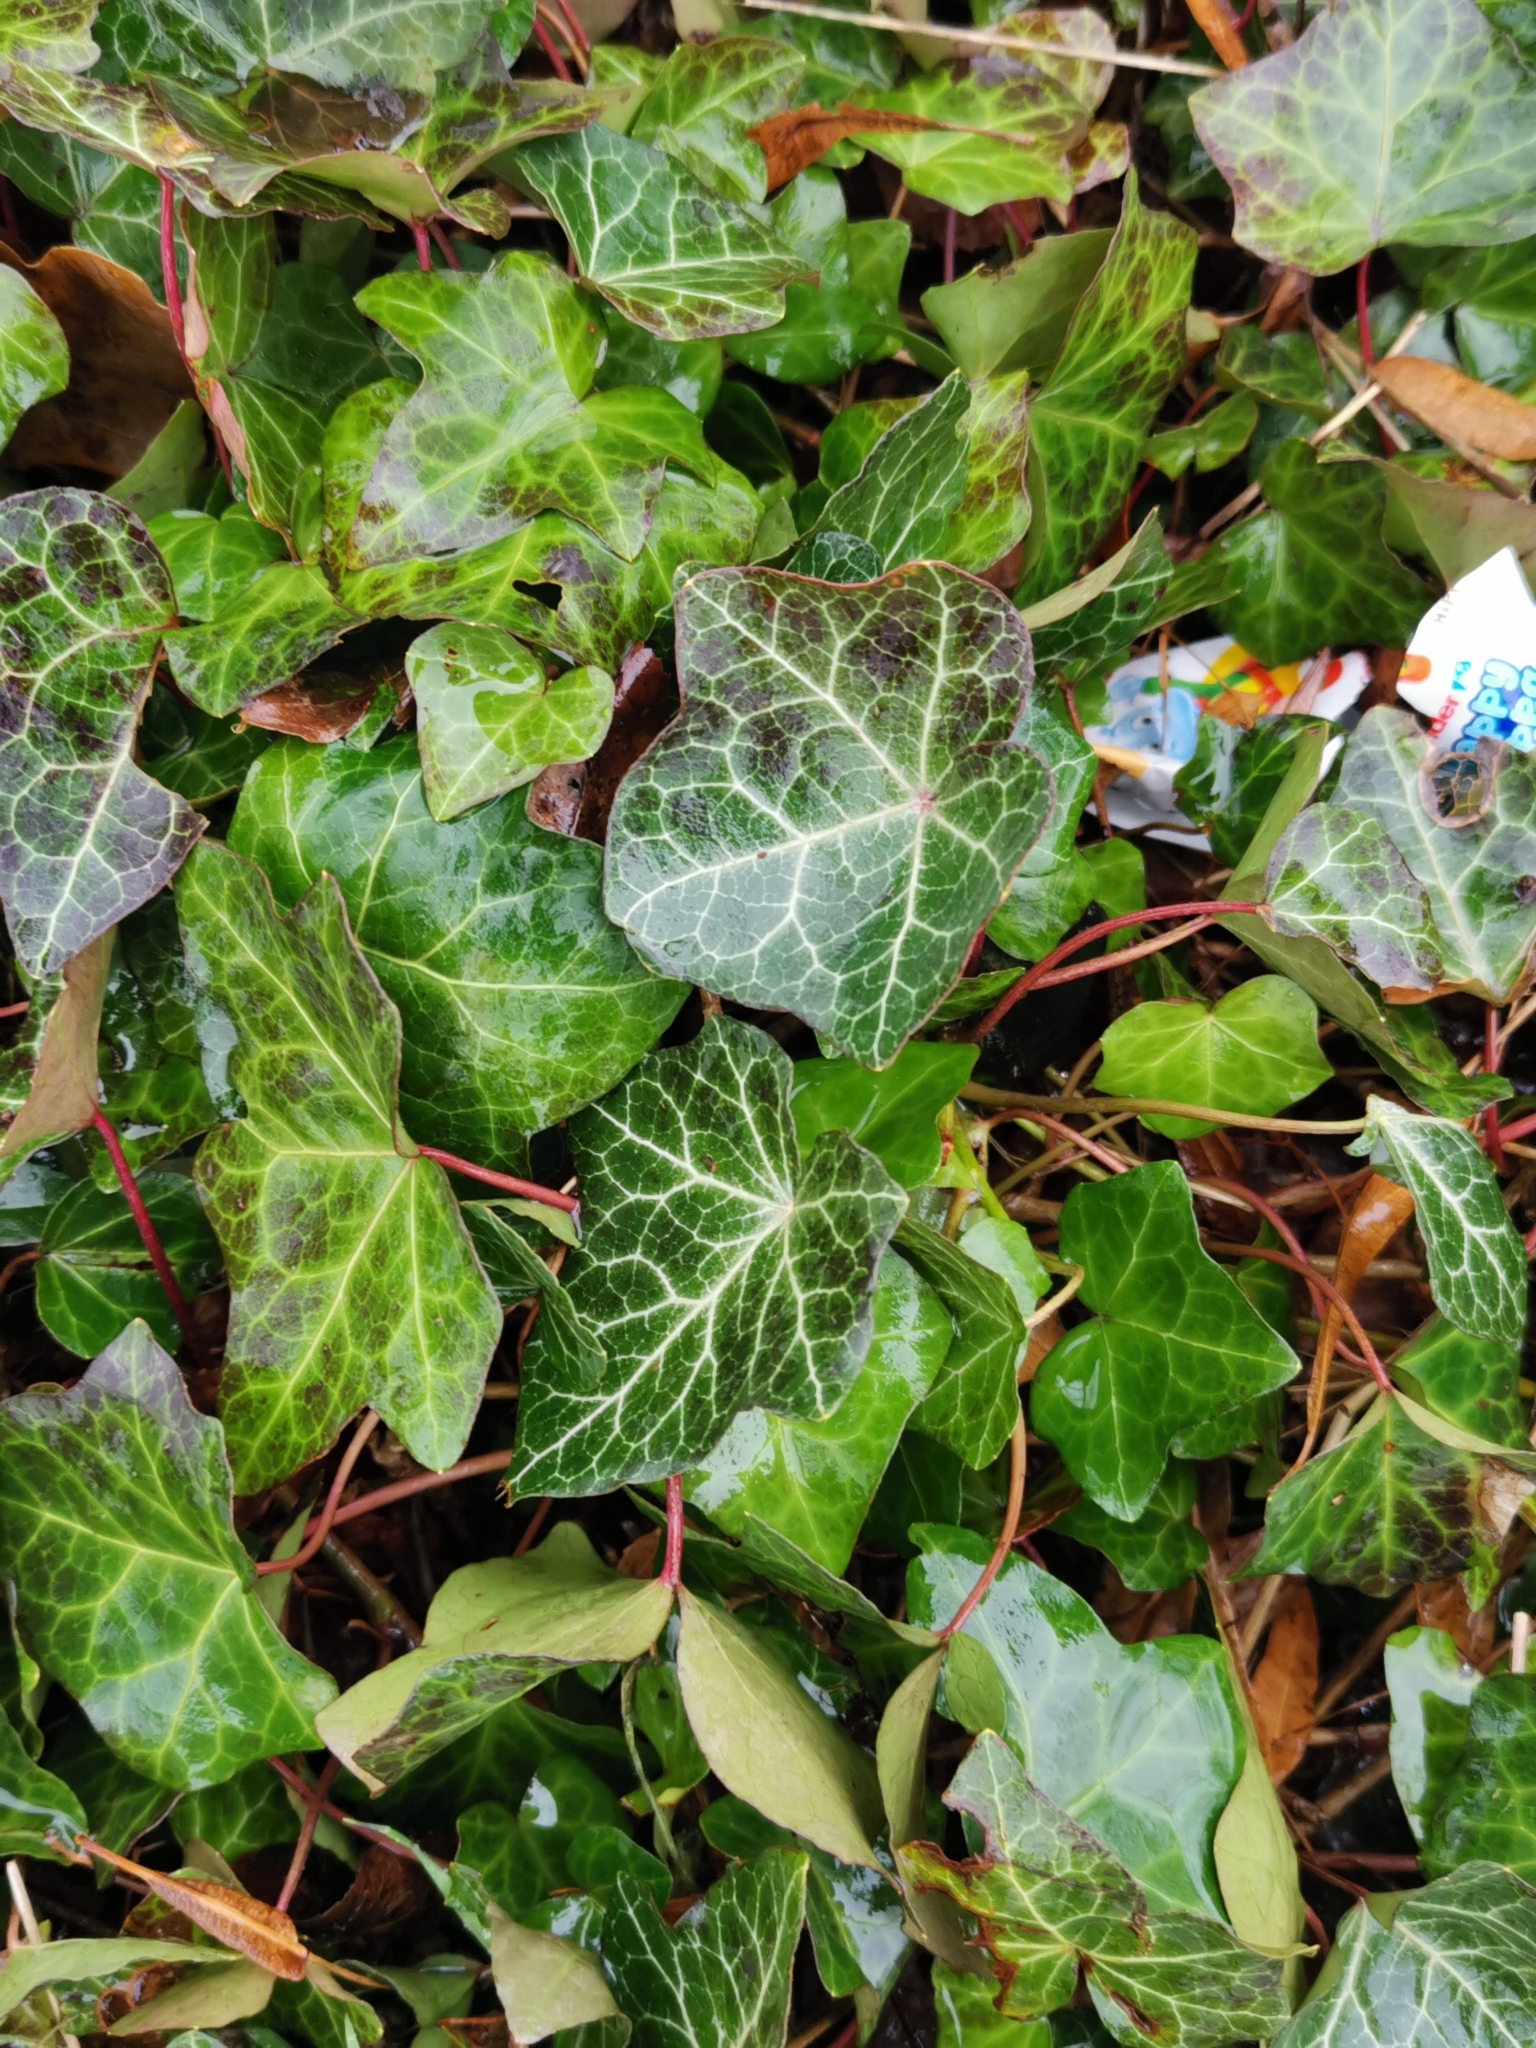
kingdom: Plantae
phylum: Tracheophyta
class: Magnoliopsida
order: Apiales
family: Araliaceae
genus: Hedera
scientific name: Hedera helix
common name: Ivy
